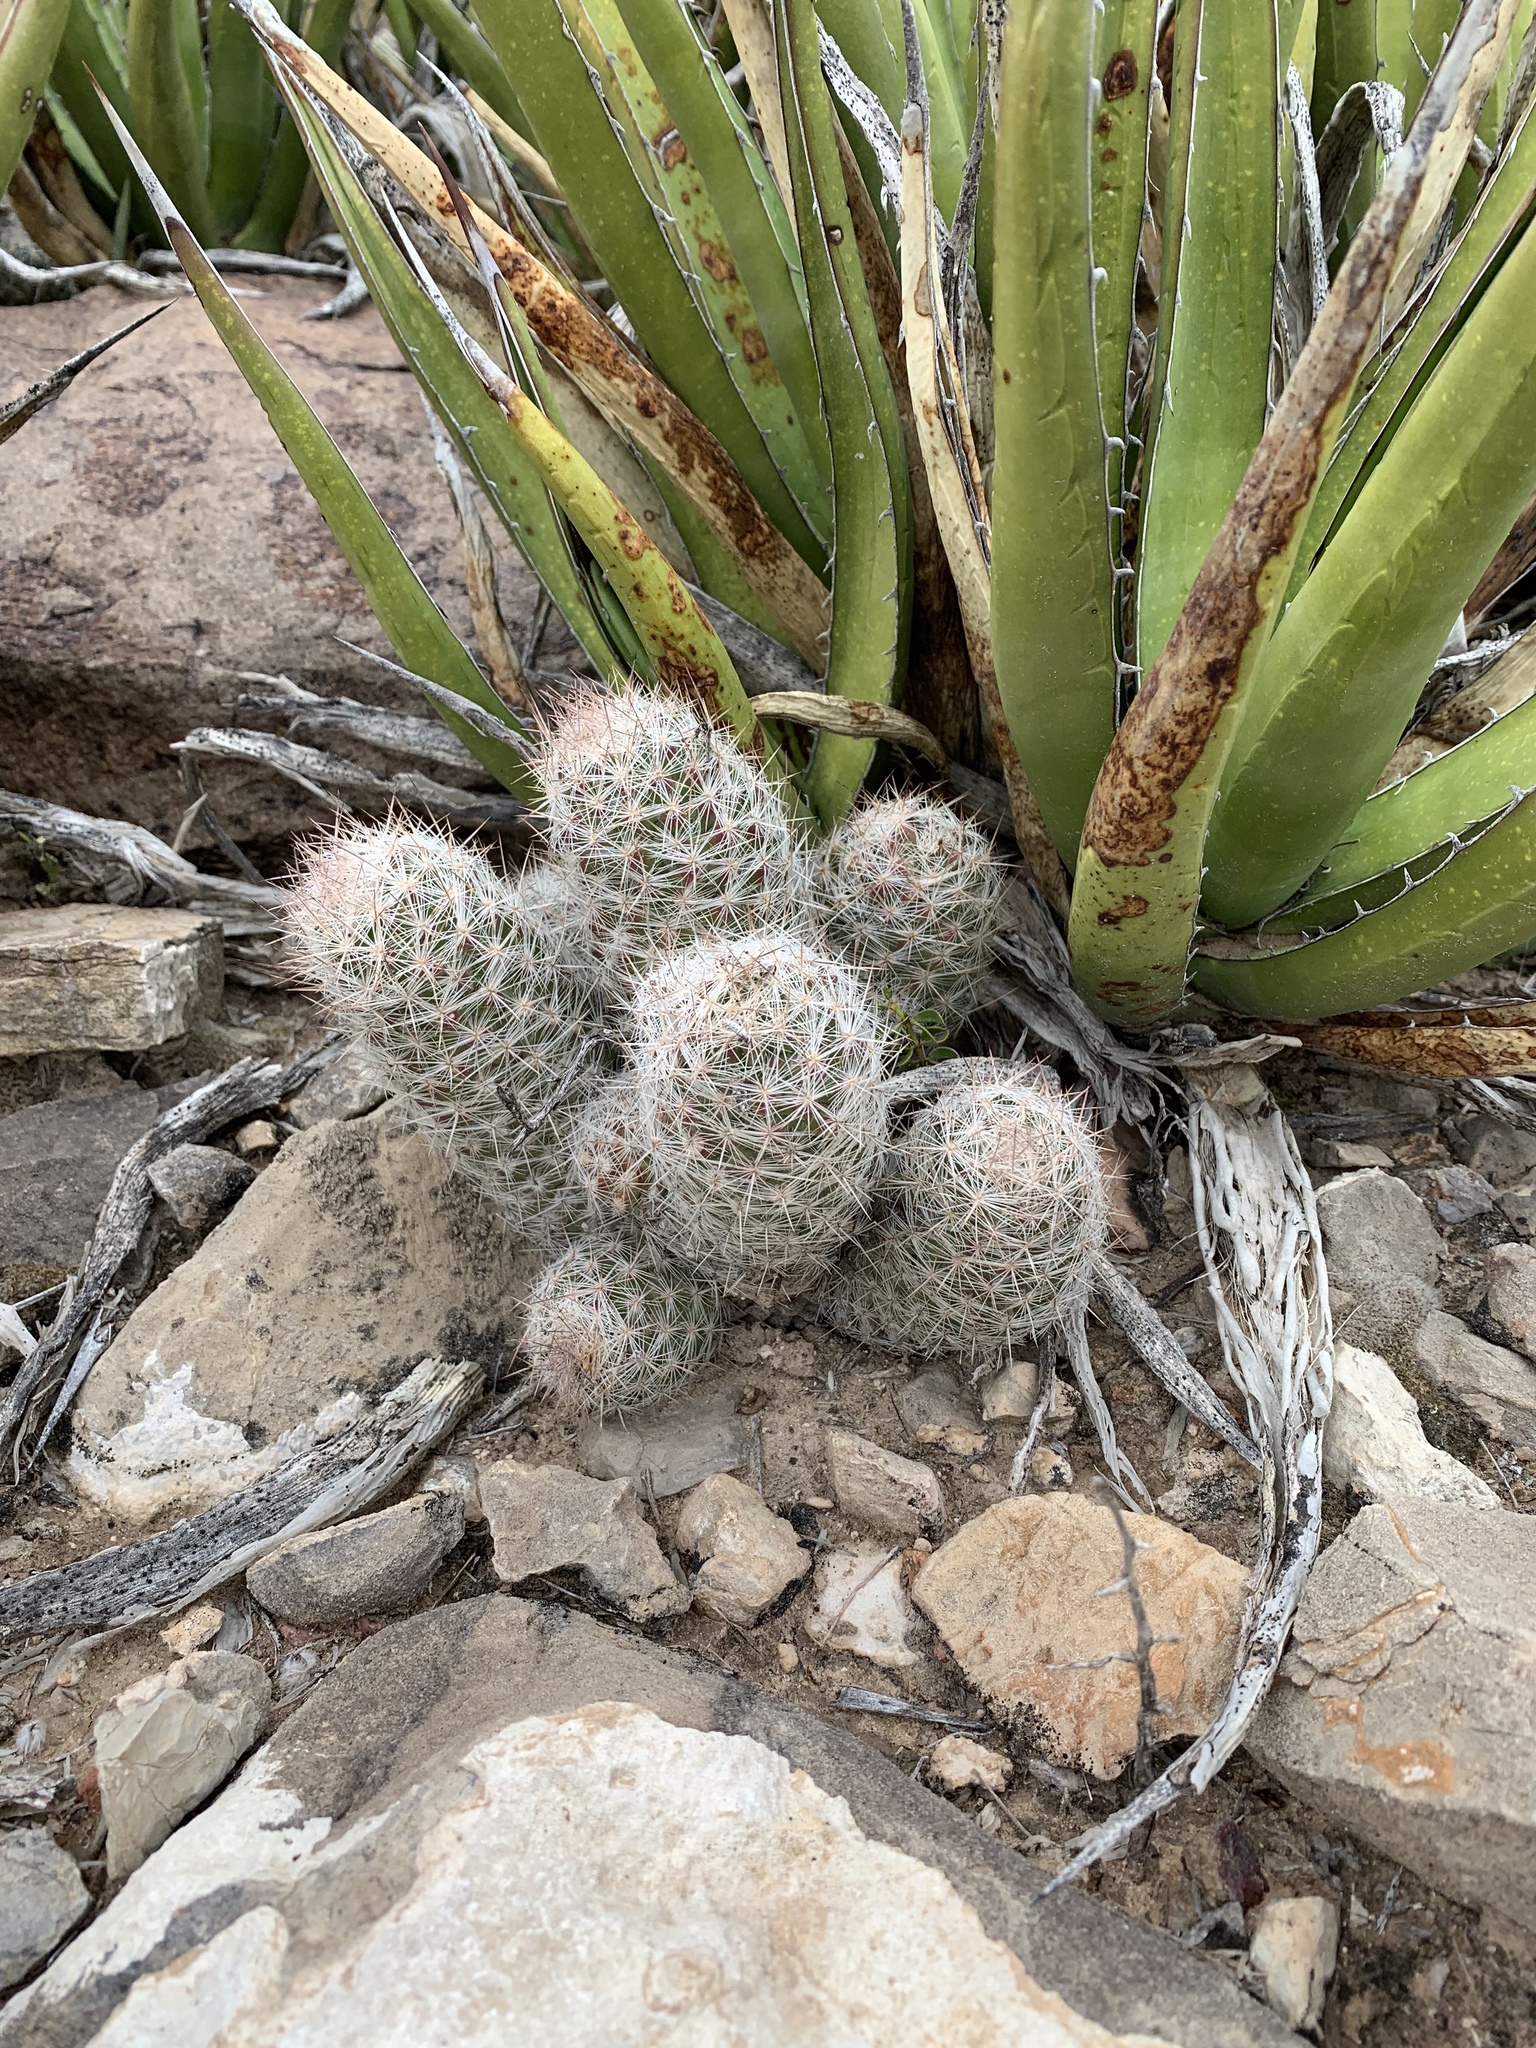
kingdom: Plantae
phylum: Tracheophyta
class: Magnoliopsida
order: Caryophyllales
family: Cactaceae
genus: Pelecyphora
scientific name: Pelecyphora tuberculosa
